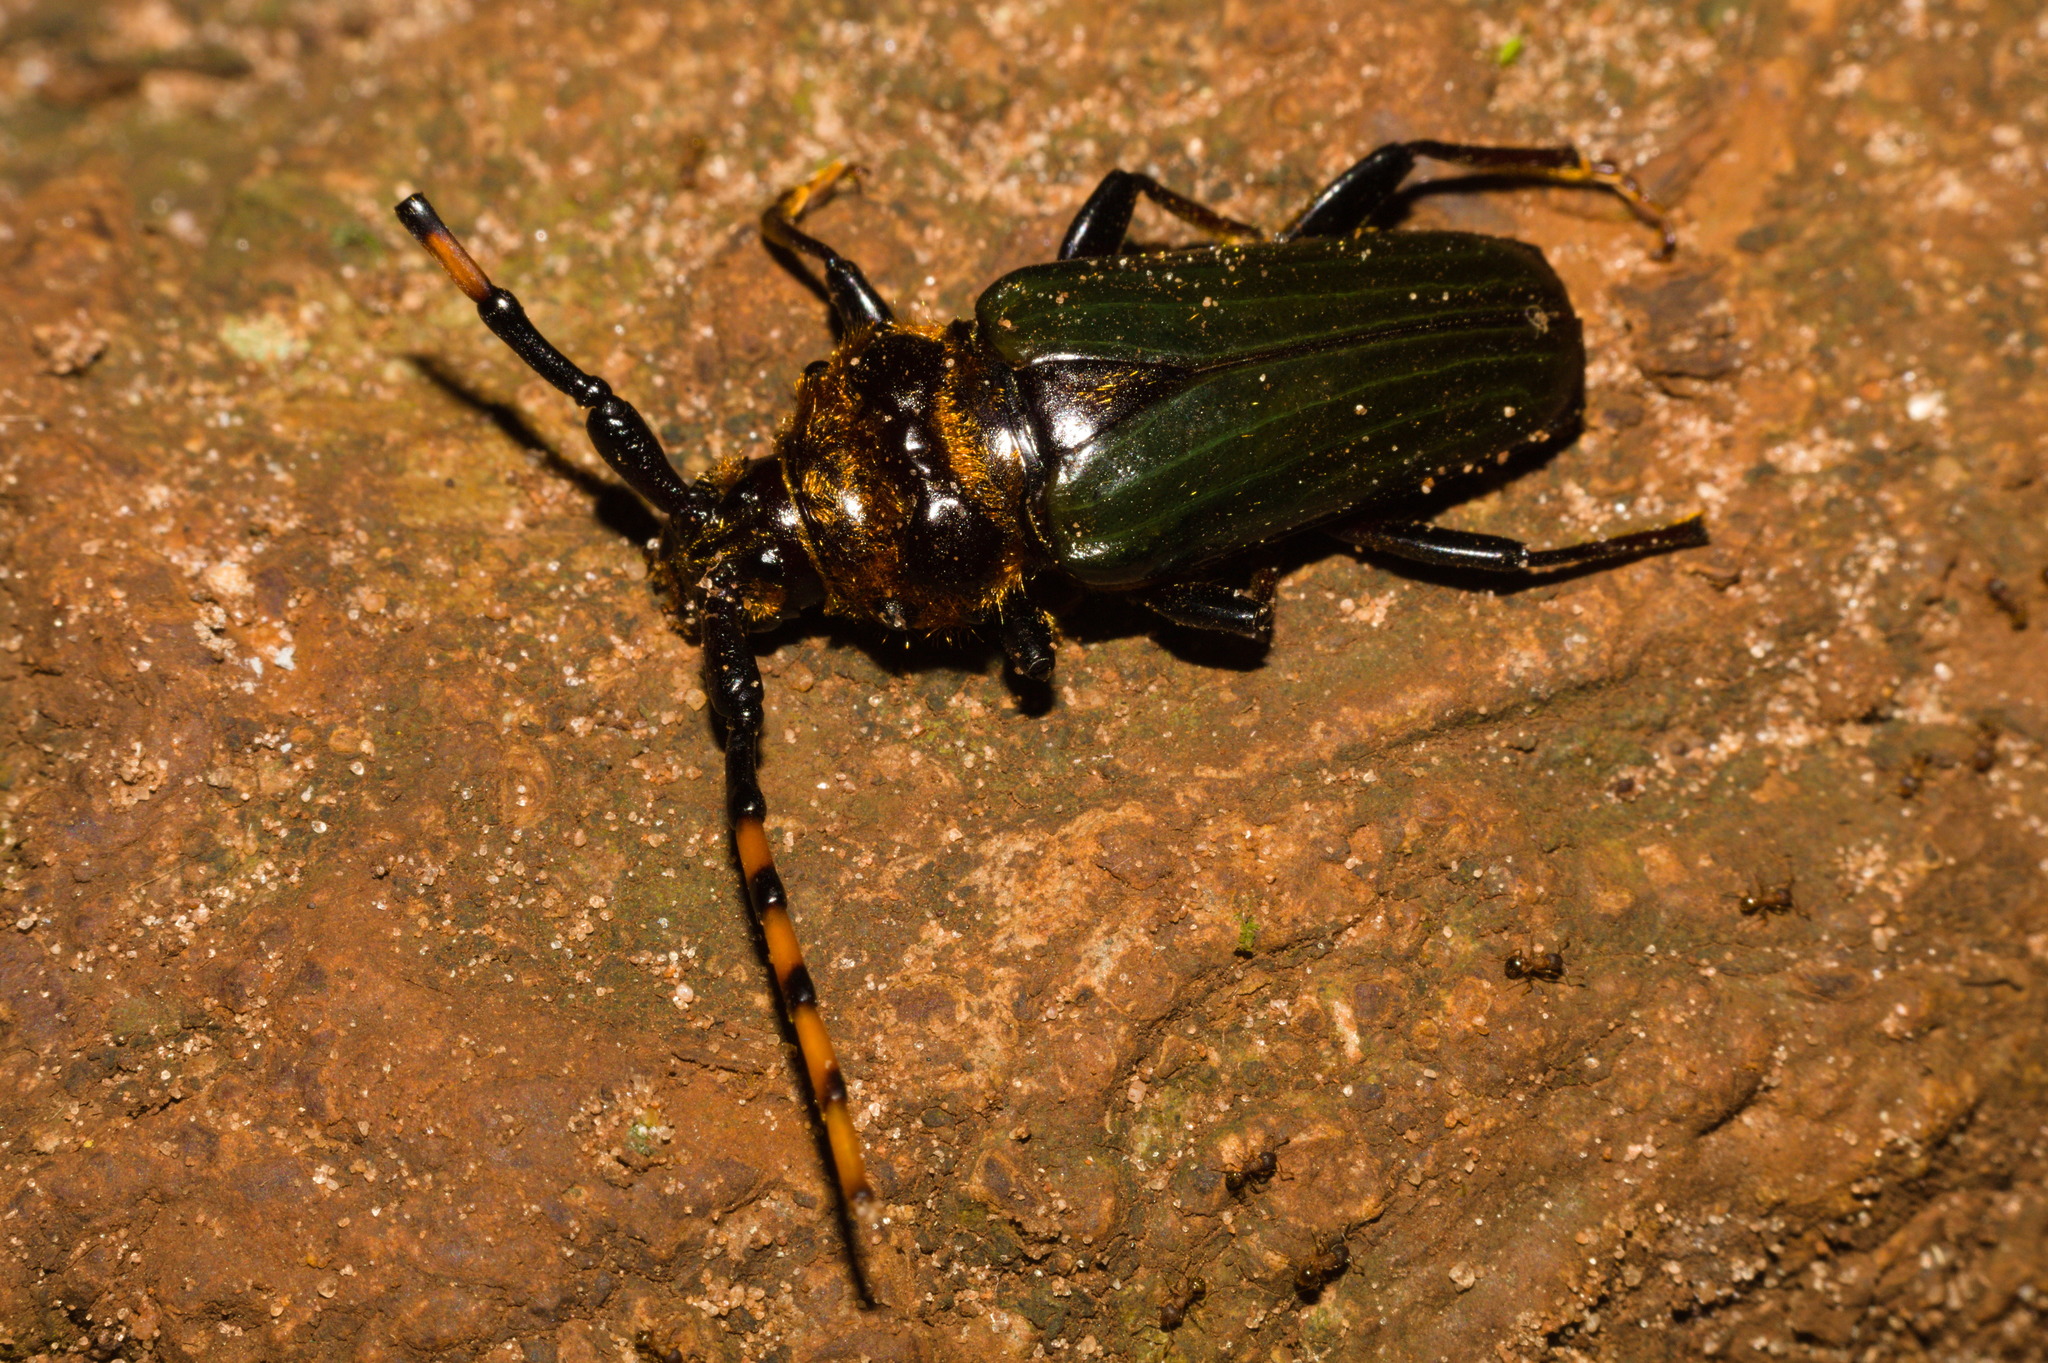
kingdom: Animalia
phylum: Arthropoda
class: Insecta
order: Coleoptera
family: Cerambycidae
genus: Retrachydes
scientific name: Retrachydes thoracicus
